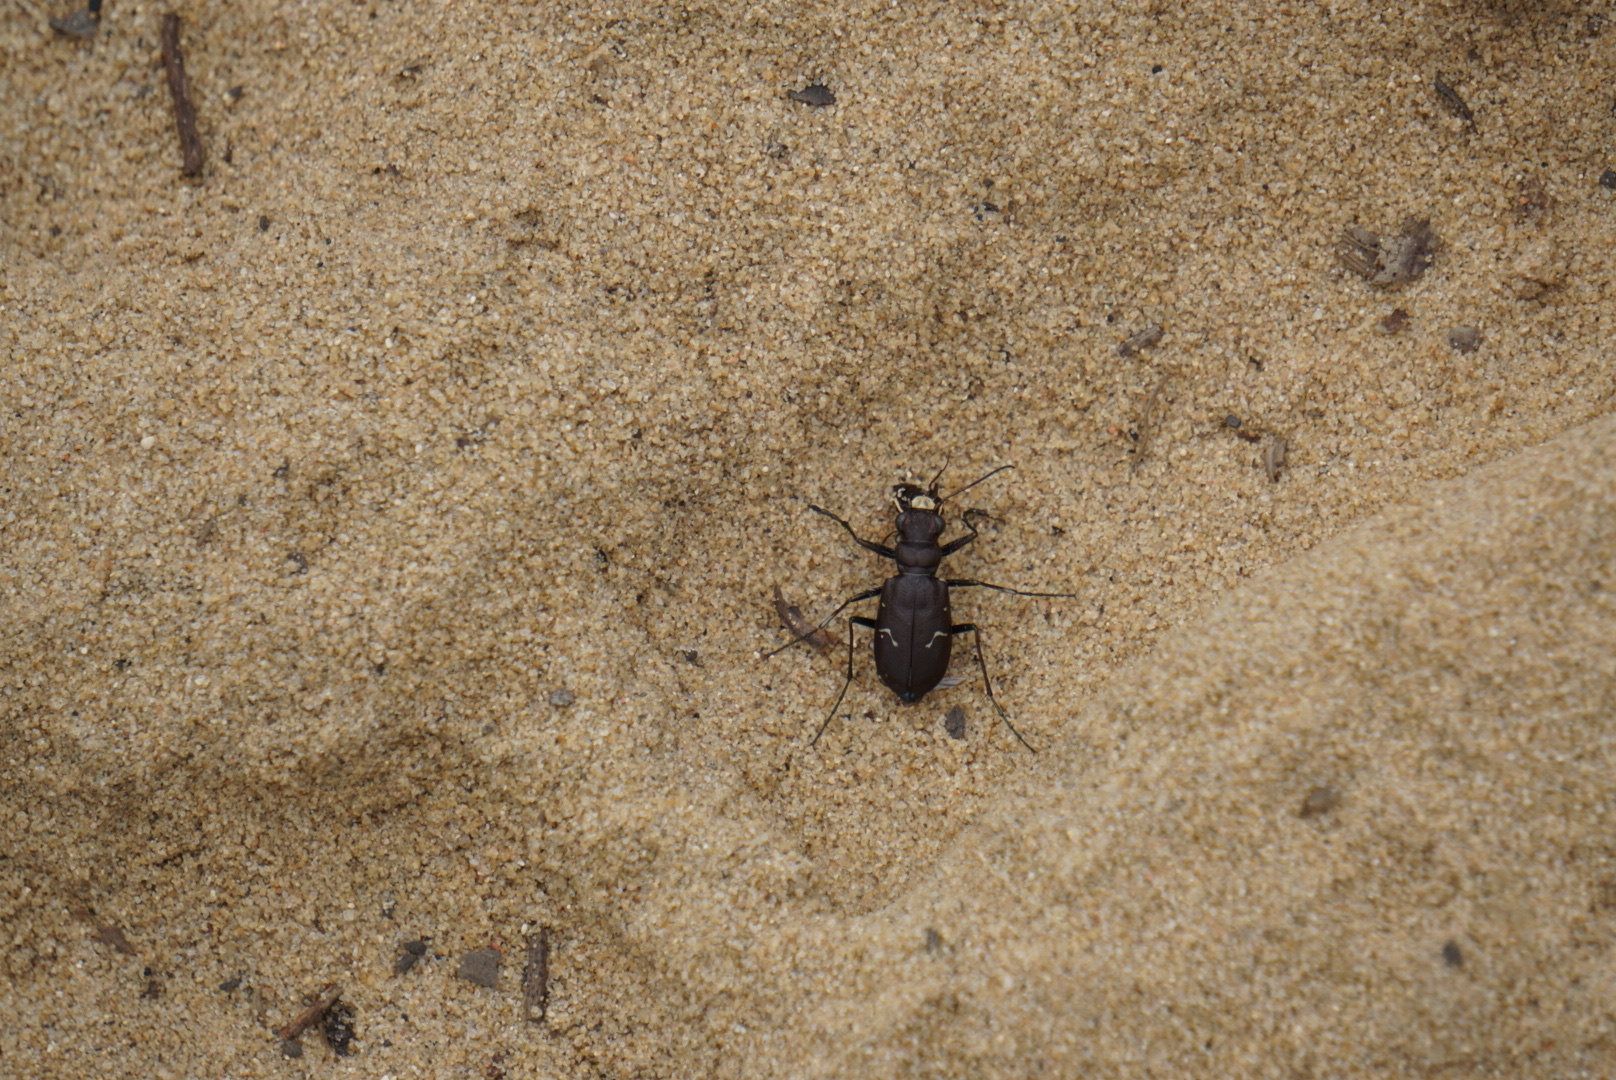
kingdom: Animalia
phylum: Arthropoda
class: Insecta
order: Coleoptera
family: Carabidae
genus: Cicindela
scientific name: Cicindela longilabris
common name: Boreal long-lipped tiger beetle
